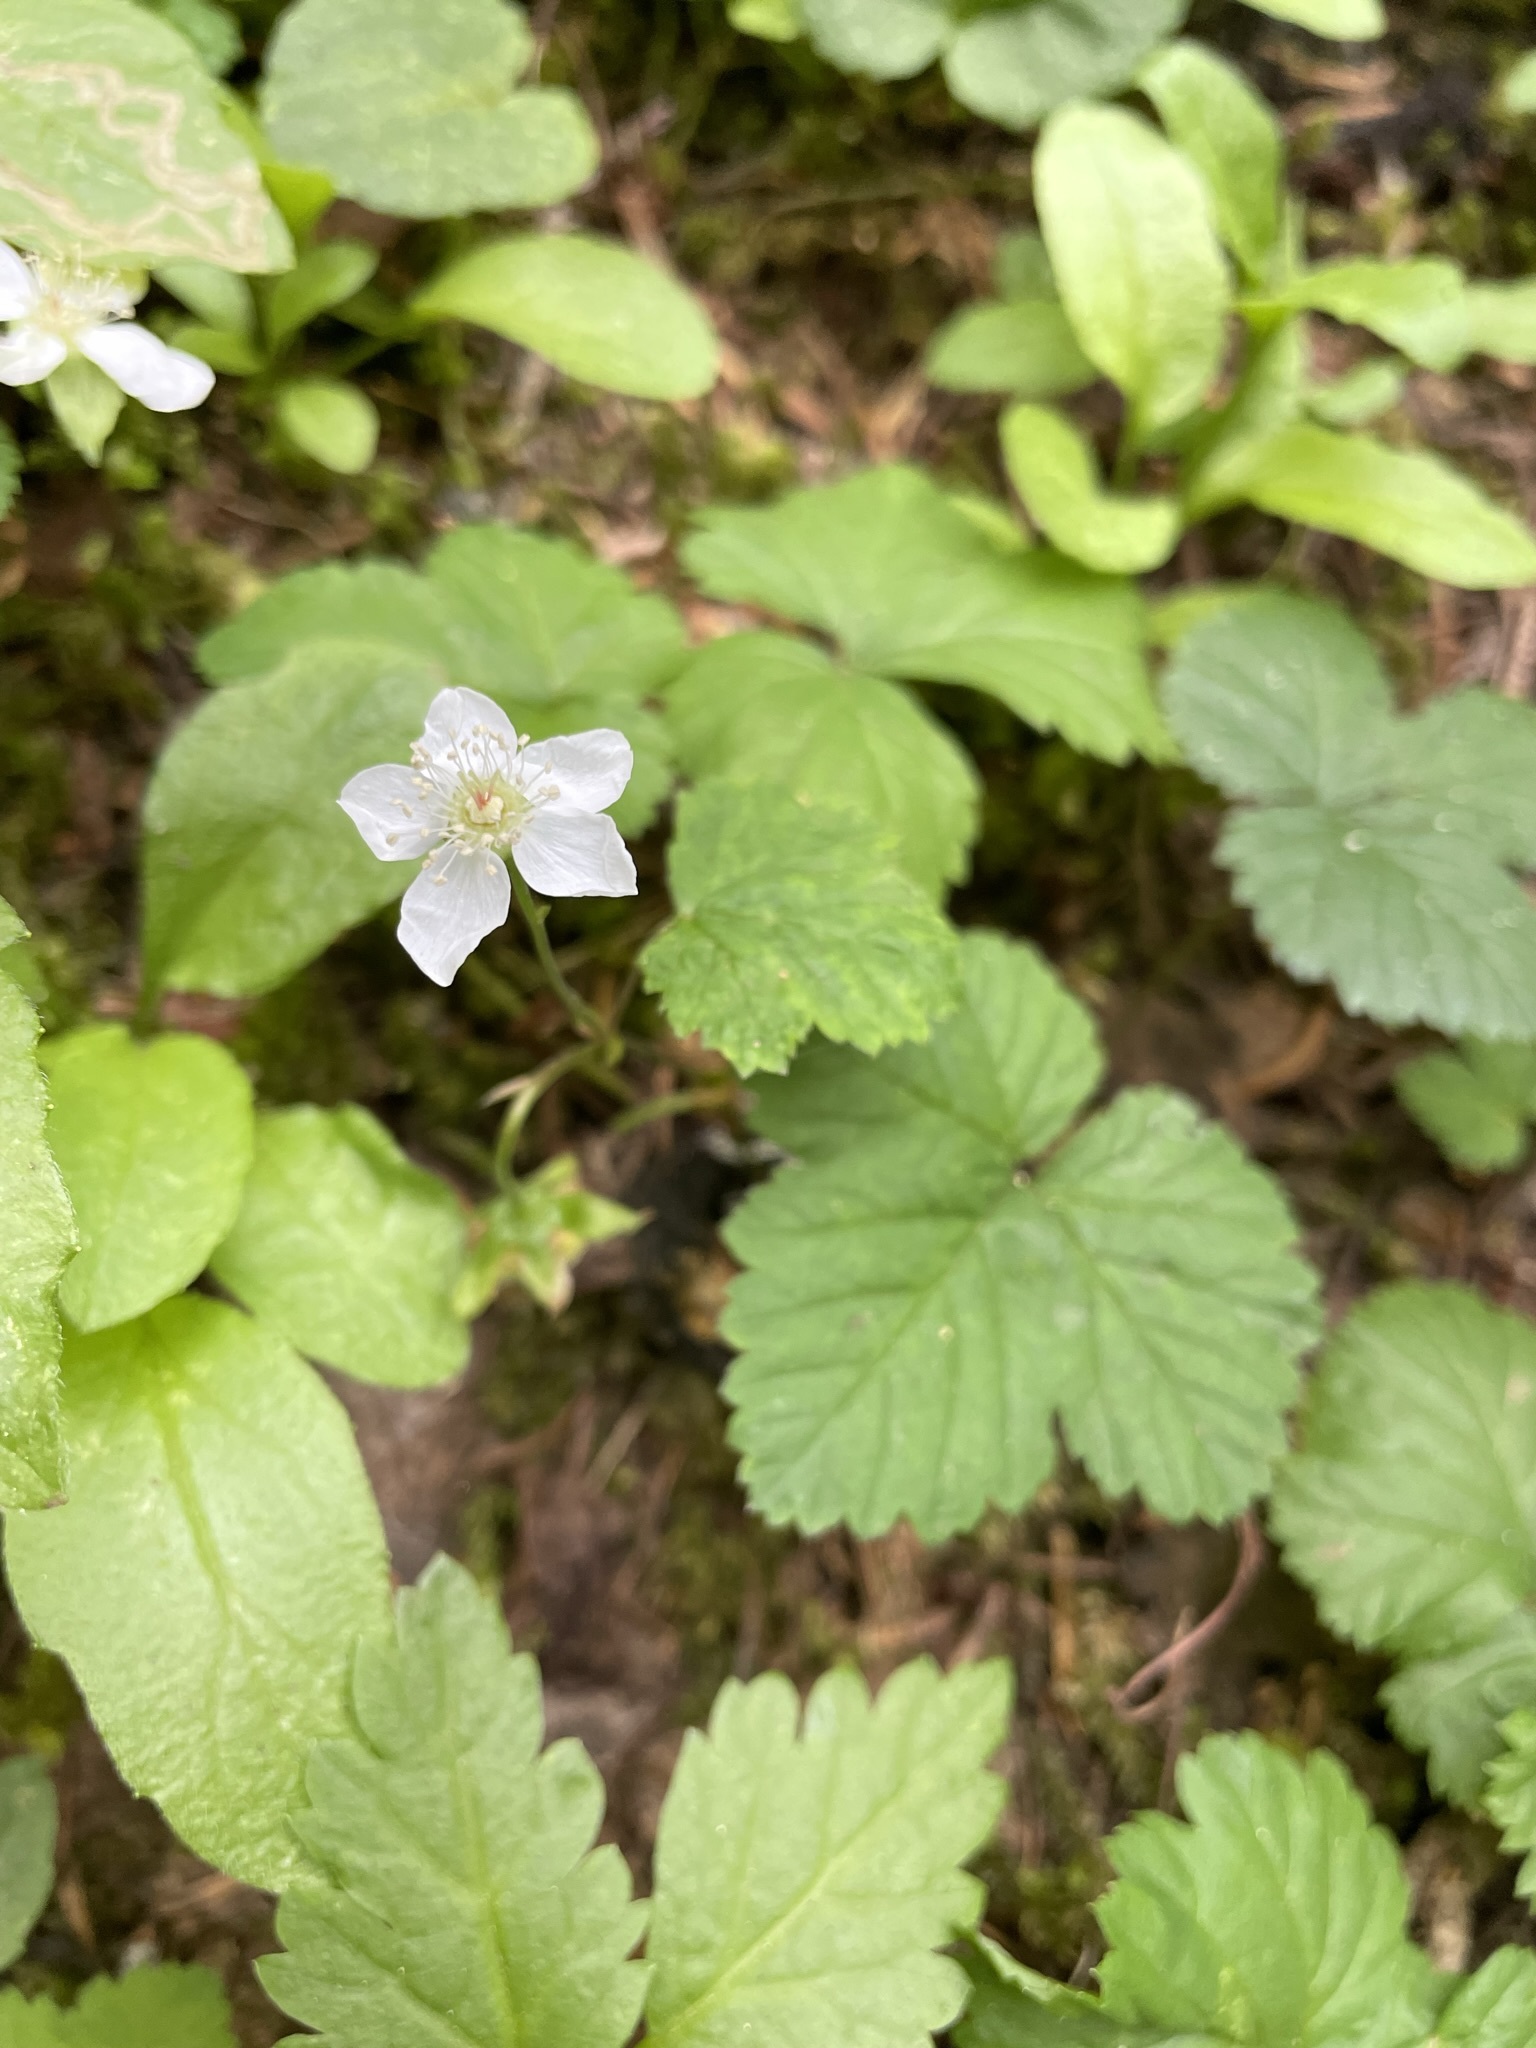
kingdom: Plantae
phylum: Tracheophyta
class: Magnoliopsida
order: Rosales
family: Rosaceae
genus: Rubus
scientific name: Rubus lasiococcus
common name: Dwarf bramble
